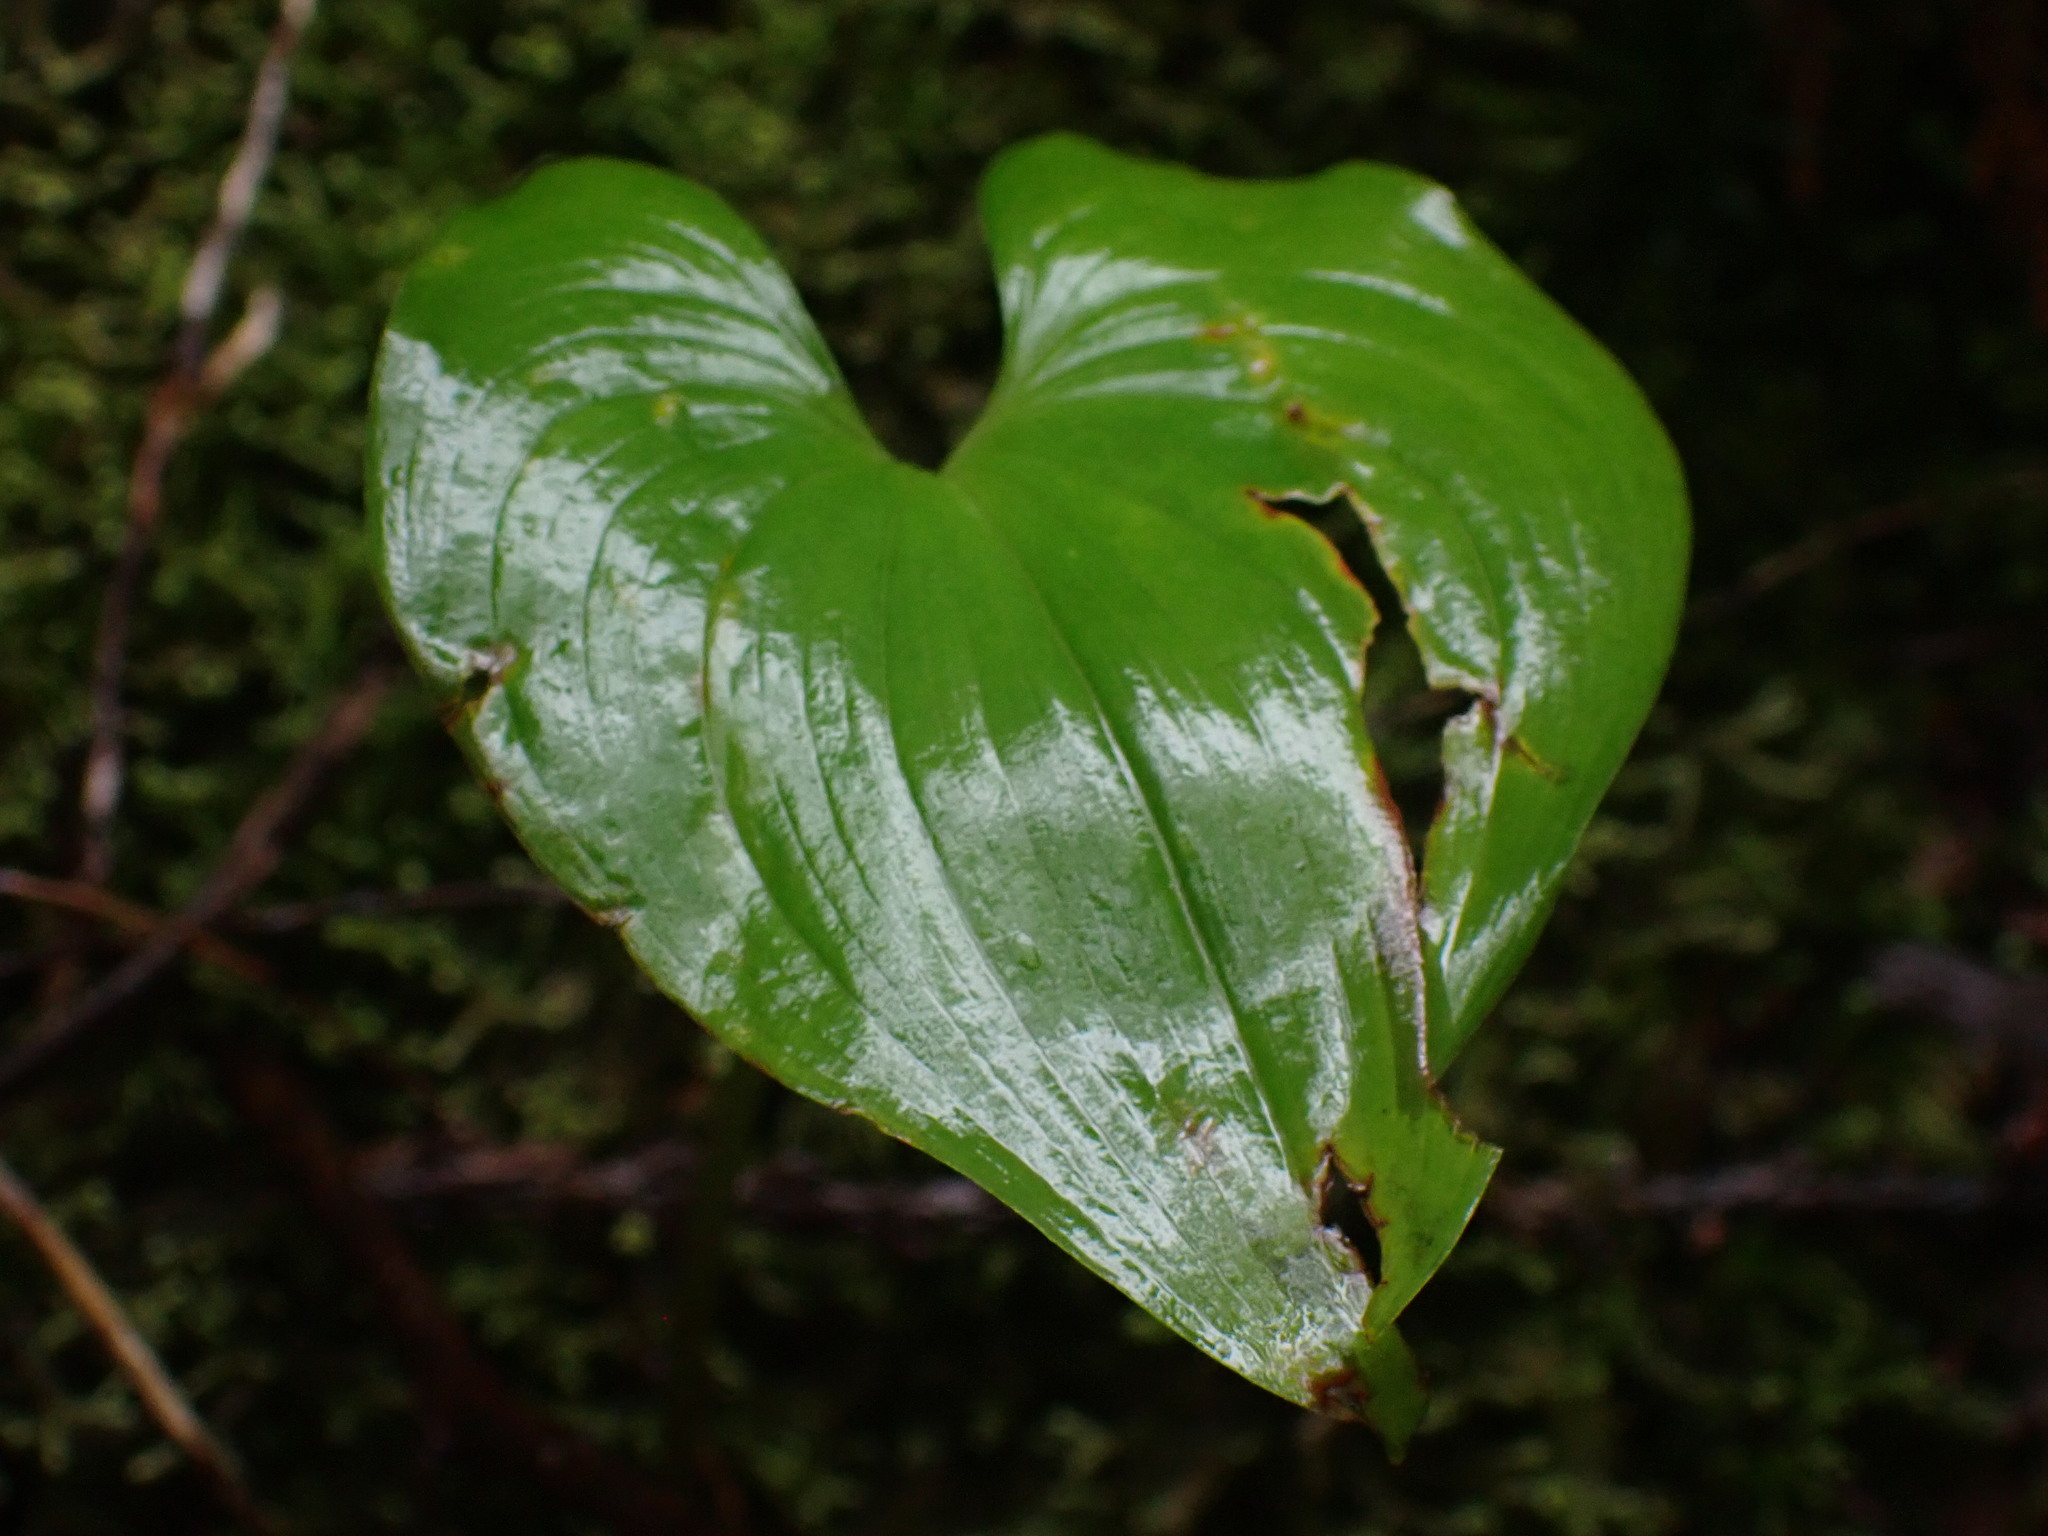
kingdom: Plantae
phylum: Tracheophyta
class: Liliopsida
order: Asparagales
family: Asparagaceae
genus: Maianthemum
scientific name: Maianthemum dilatatum
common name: False lily-of-the-valley
